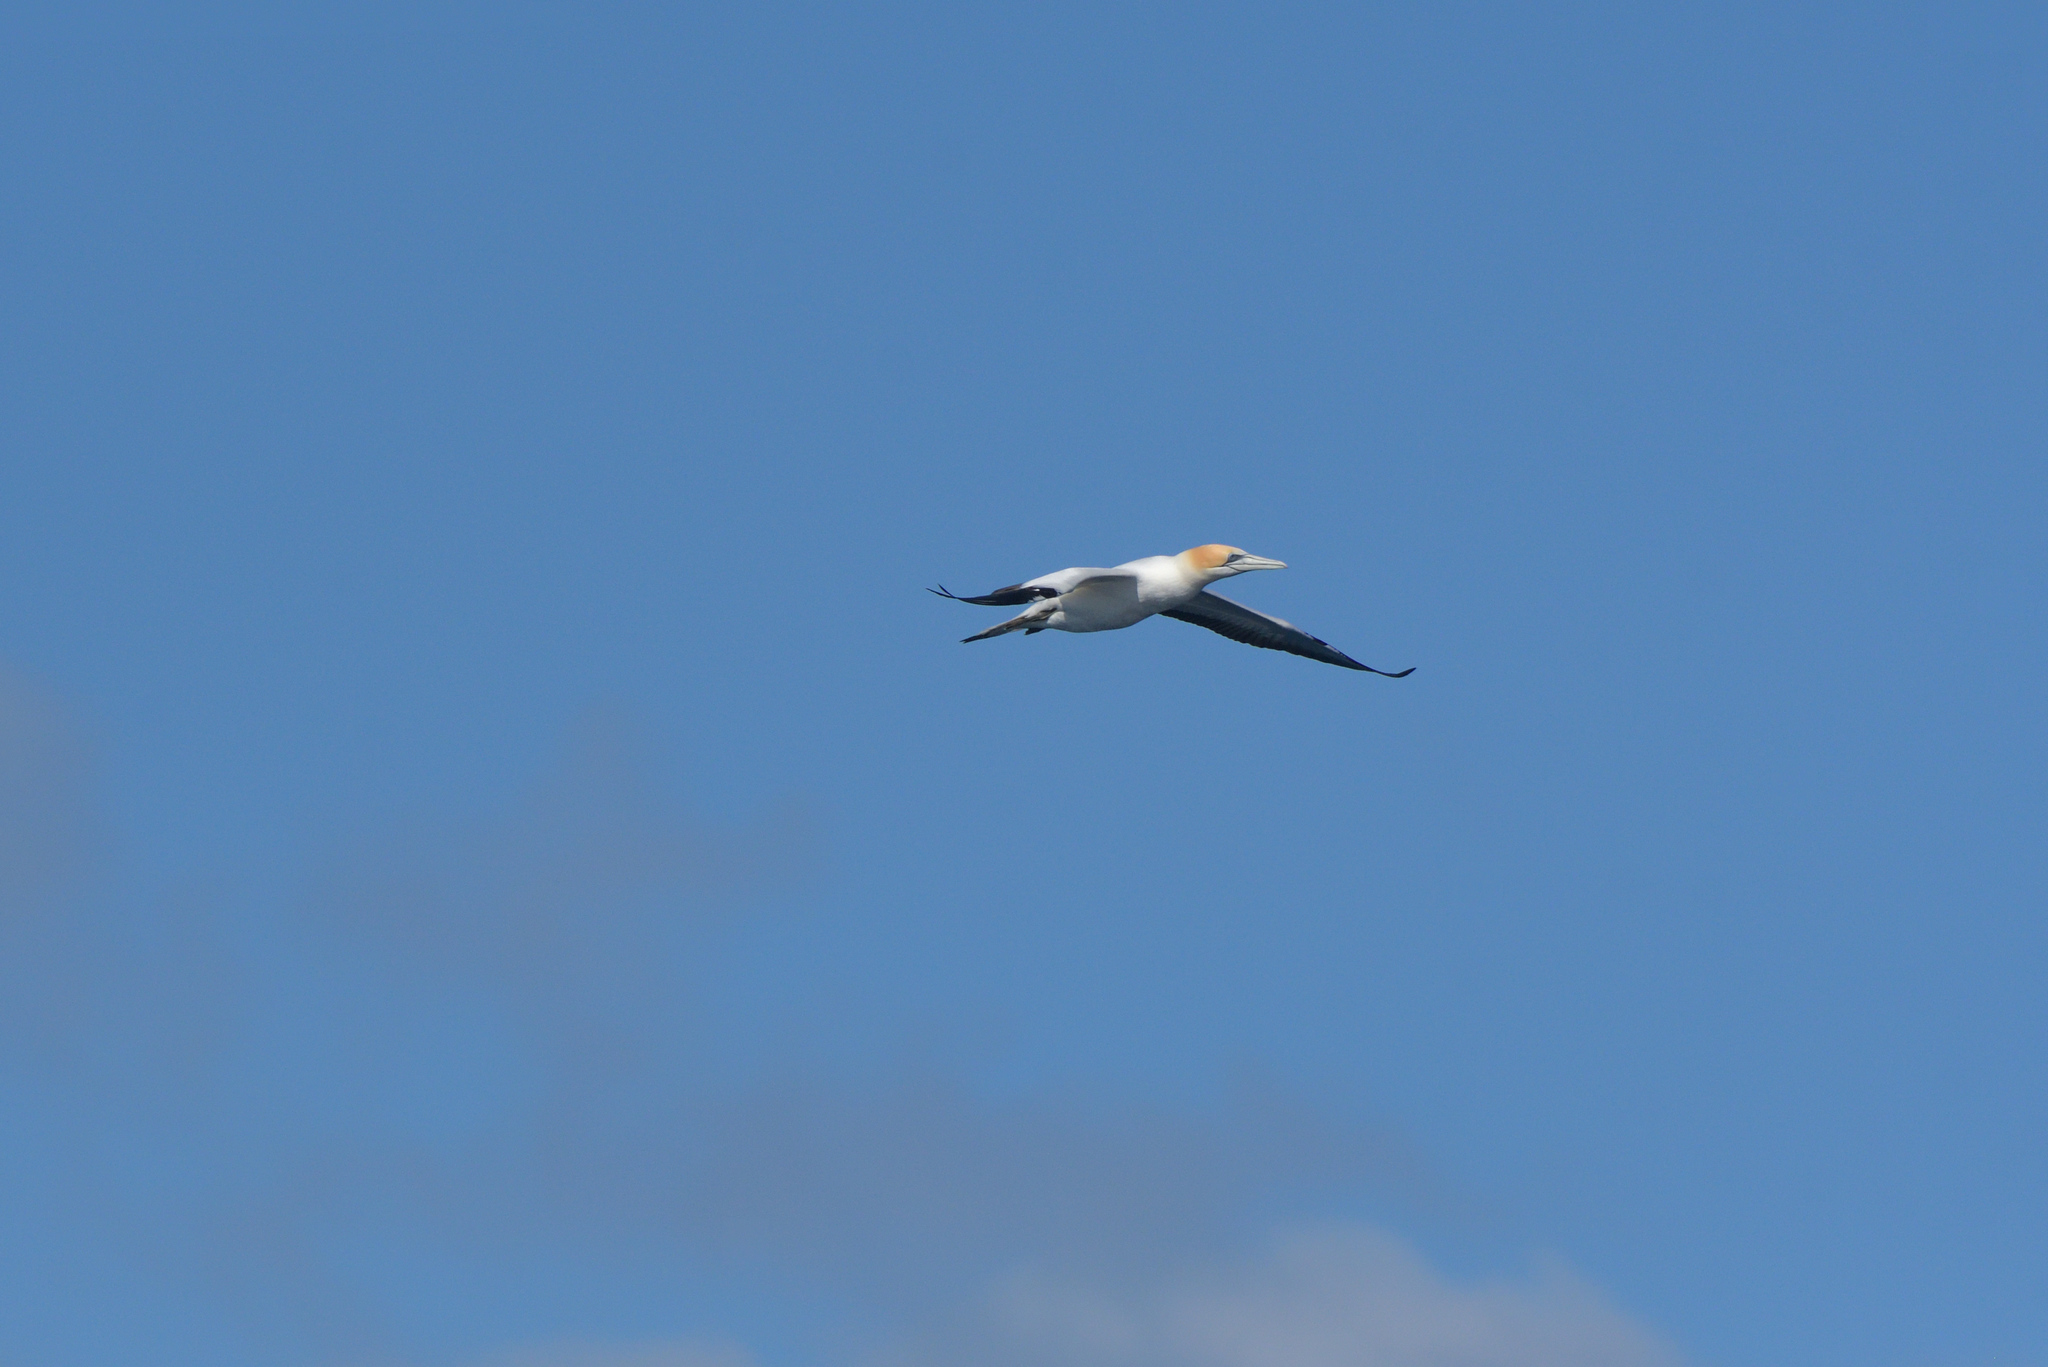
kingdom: Animalia
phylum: Chordata
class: Aves
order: Suliformes
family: Sulidae
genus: Morus
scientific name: Morus serrator
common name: Australasian gannet
